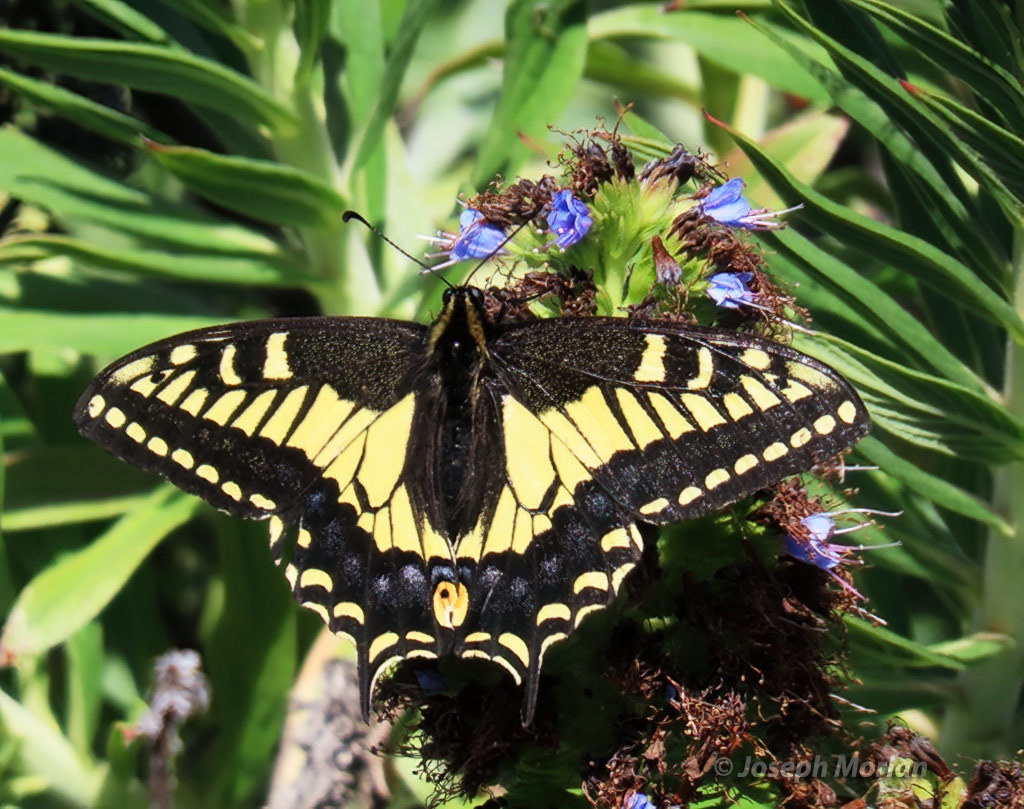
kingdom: Animalia
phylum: Arthropoda
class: Insecta
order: Lepidoptera
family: Papilionidae
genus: Papilio
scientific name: Papilio zelicaon
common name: Anise swallowtail
